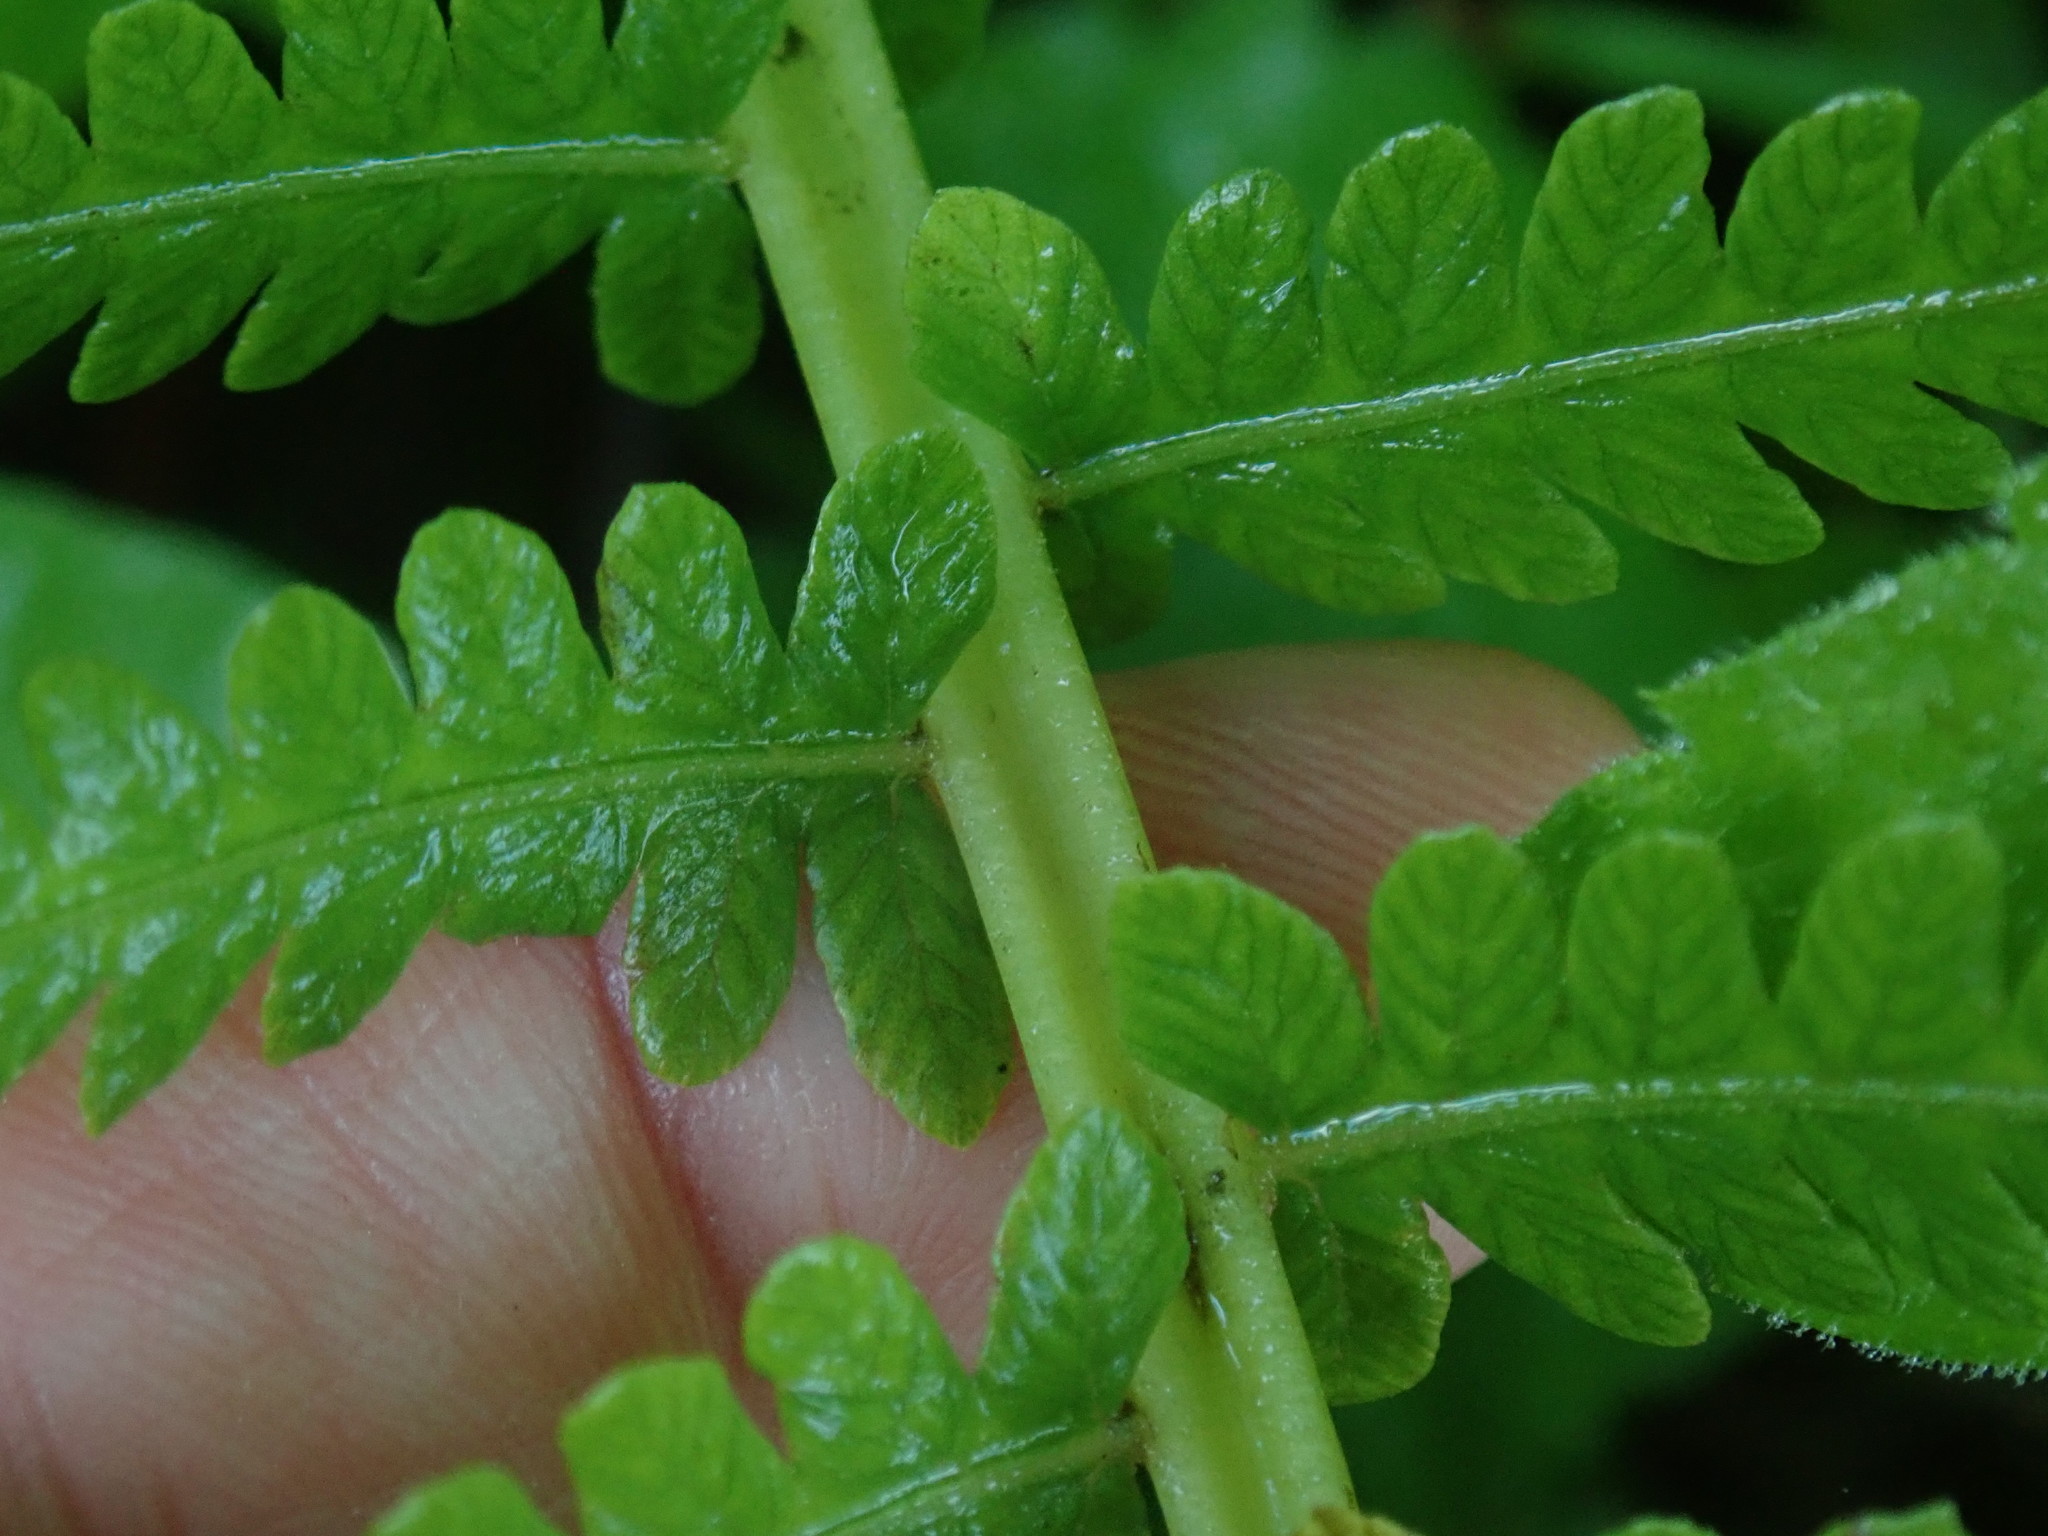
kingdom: Plantae
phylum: Tracheophyta
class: Polypodiopsida
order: Polypodiales
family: Onocleaceae
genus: Matteuccia
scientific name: Matteuccia struthiopteris
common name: Ostrich fern
